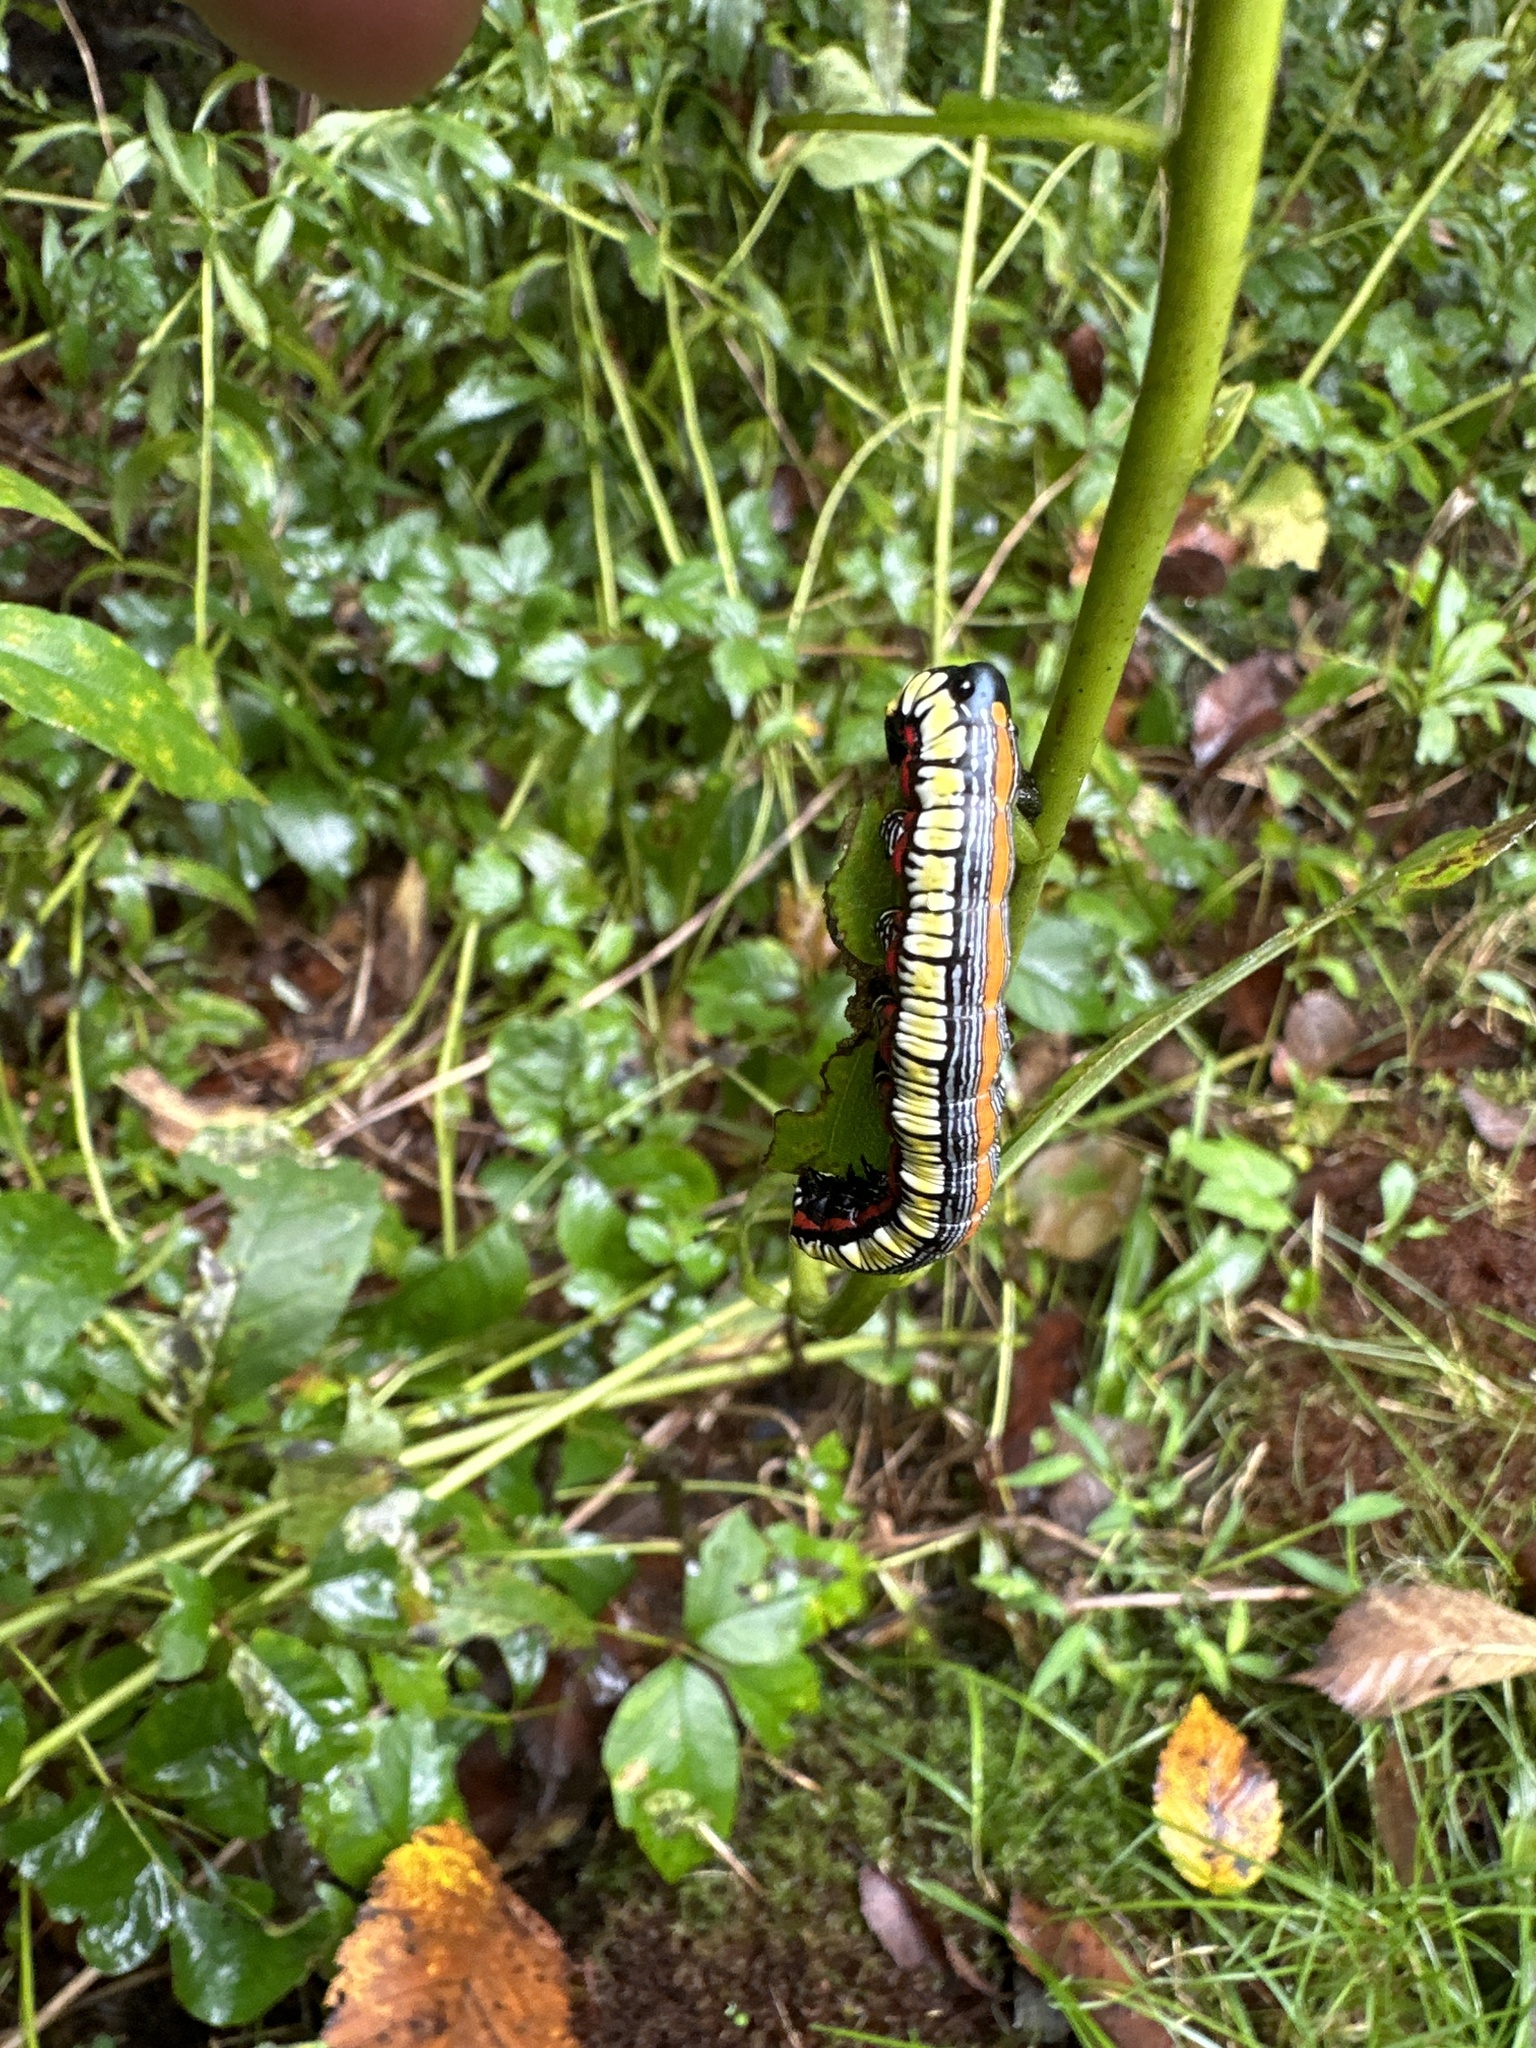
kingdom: Animalia
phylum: Arthropoda
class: Insecta
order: Lepidoptera
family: Noctuidae
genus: Cucullia
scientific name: Cucullia convexipennis
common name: Brown-hooded owlet
